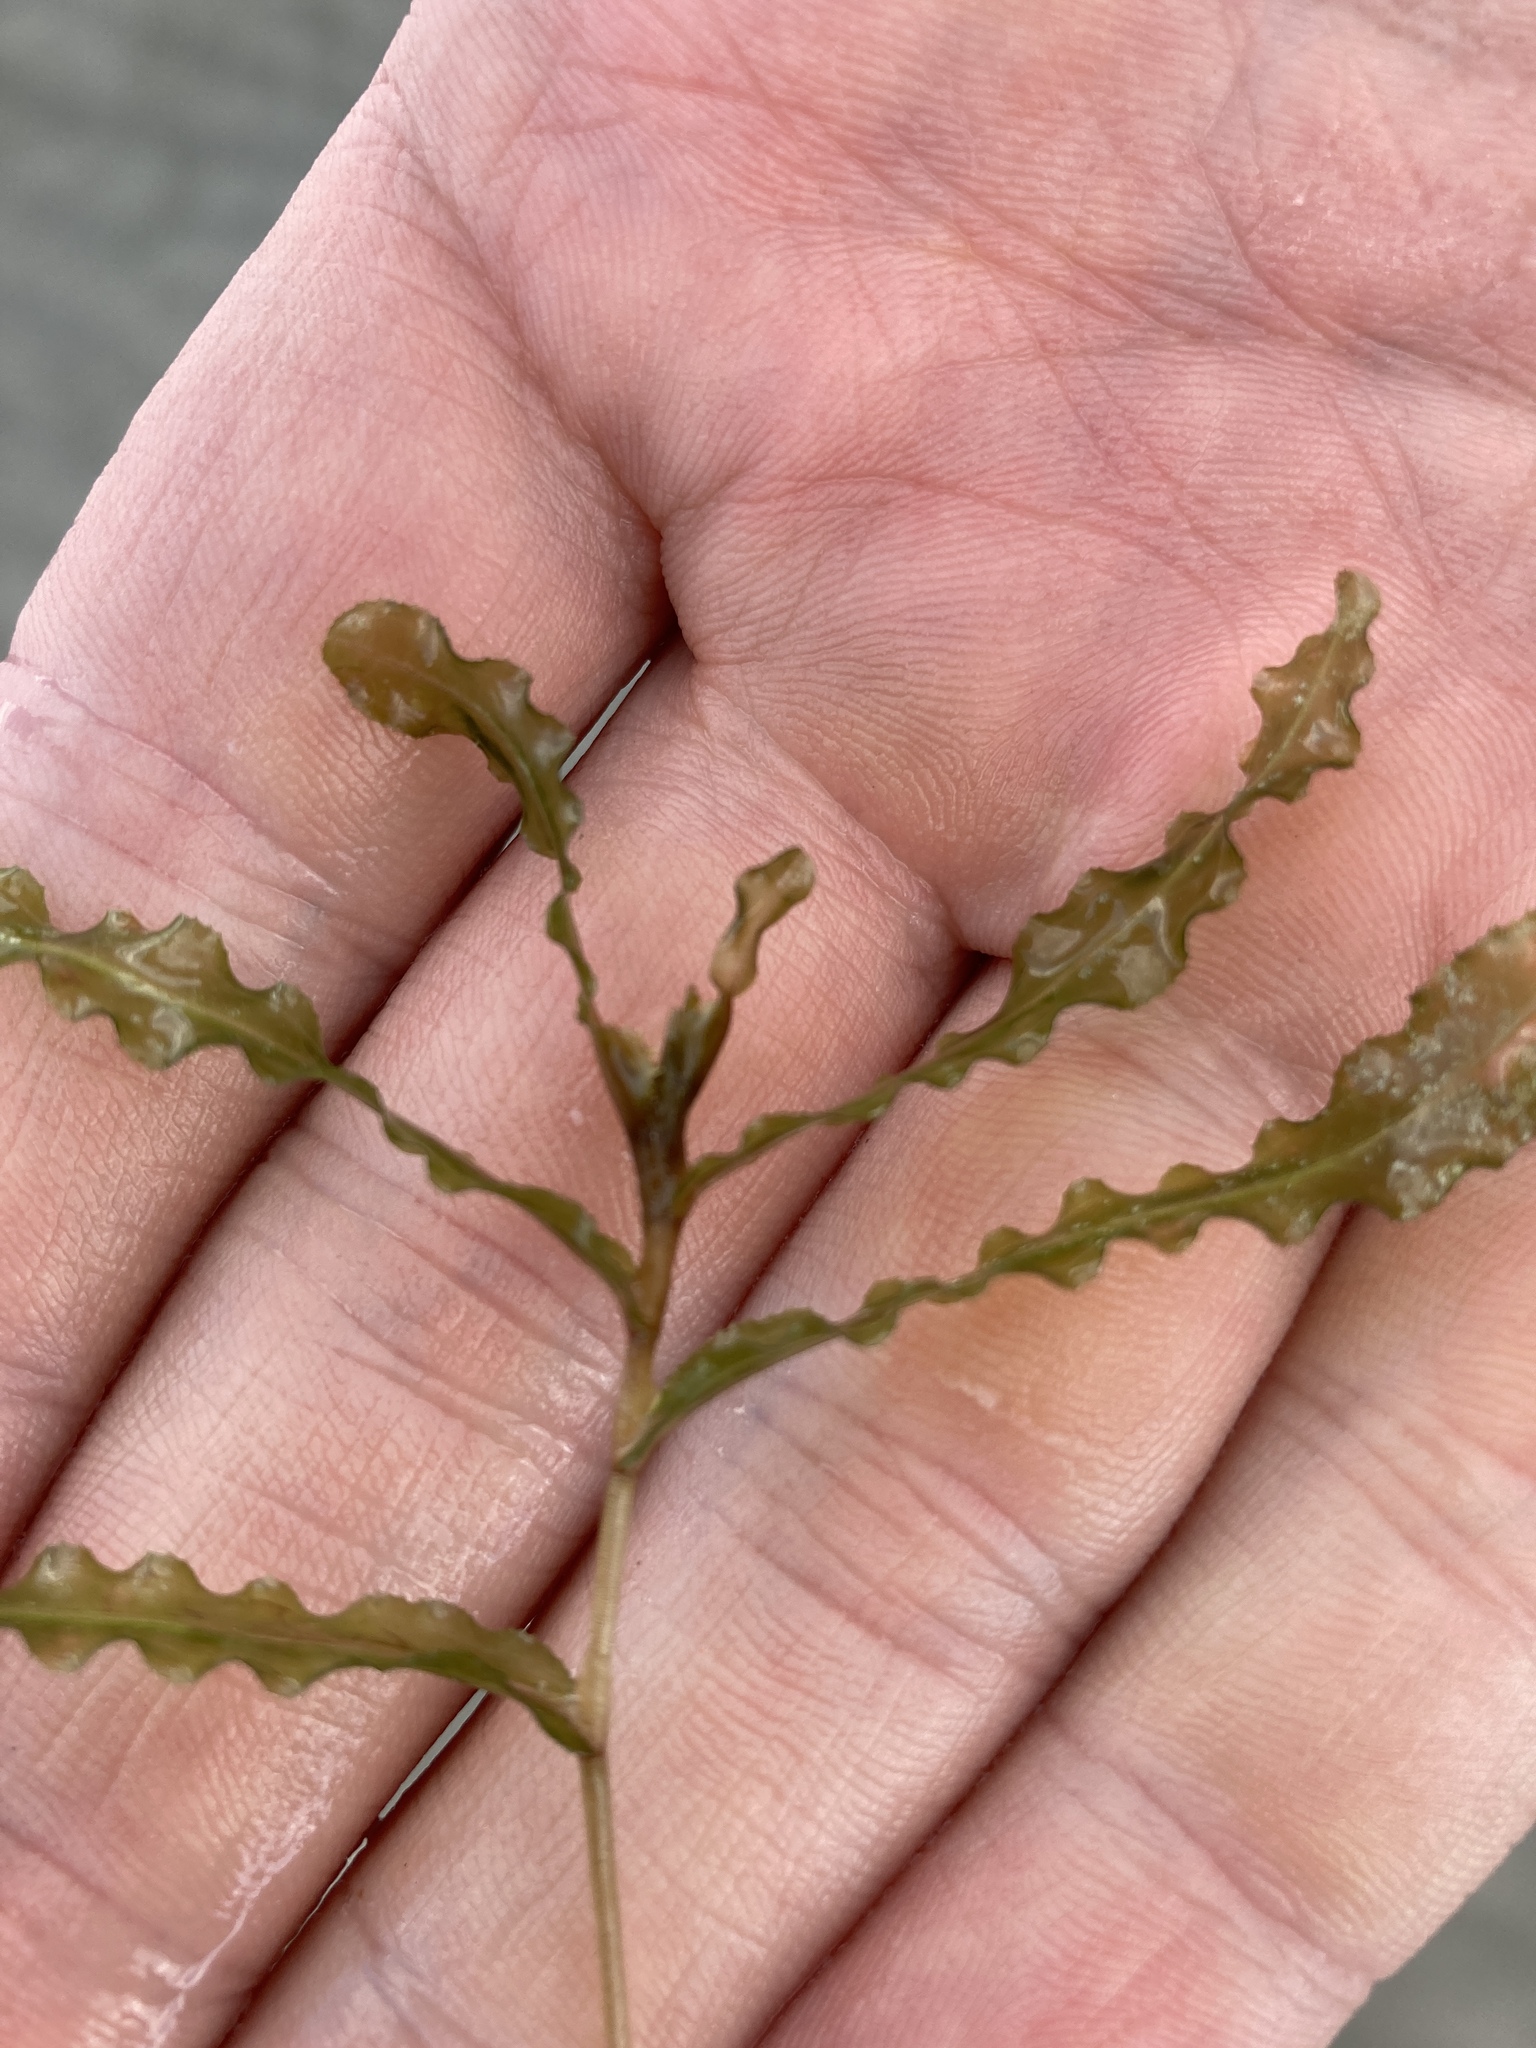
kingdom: Plantae
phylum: Tracheophyta
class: Liliopsida
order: Alismatales
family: Potamogetonaceae
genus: Potamogeton
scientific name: Potamogeton crispus
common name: Curled pondweed
